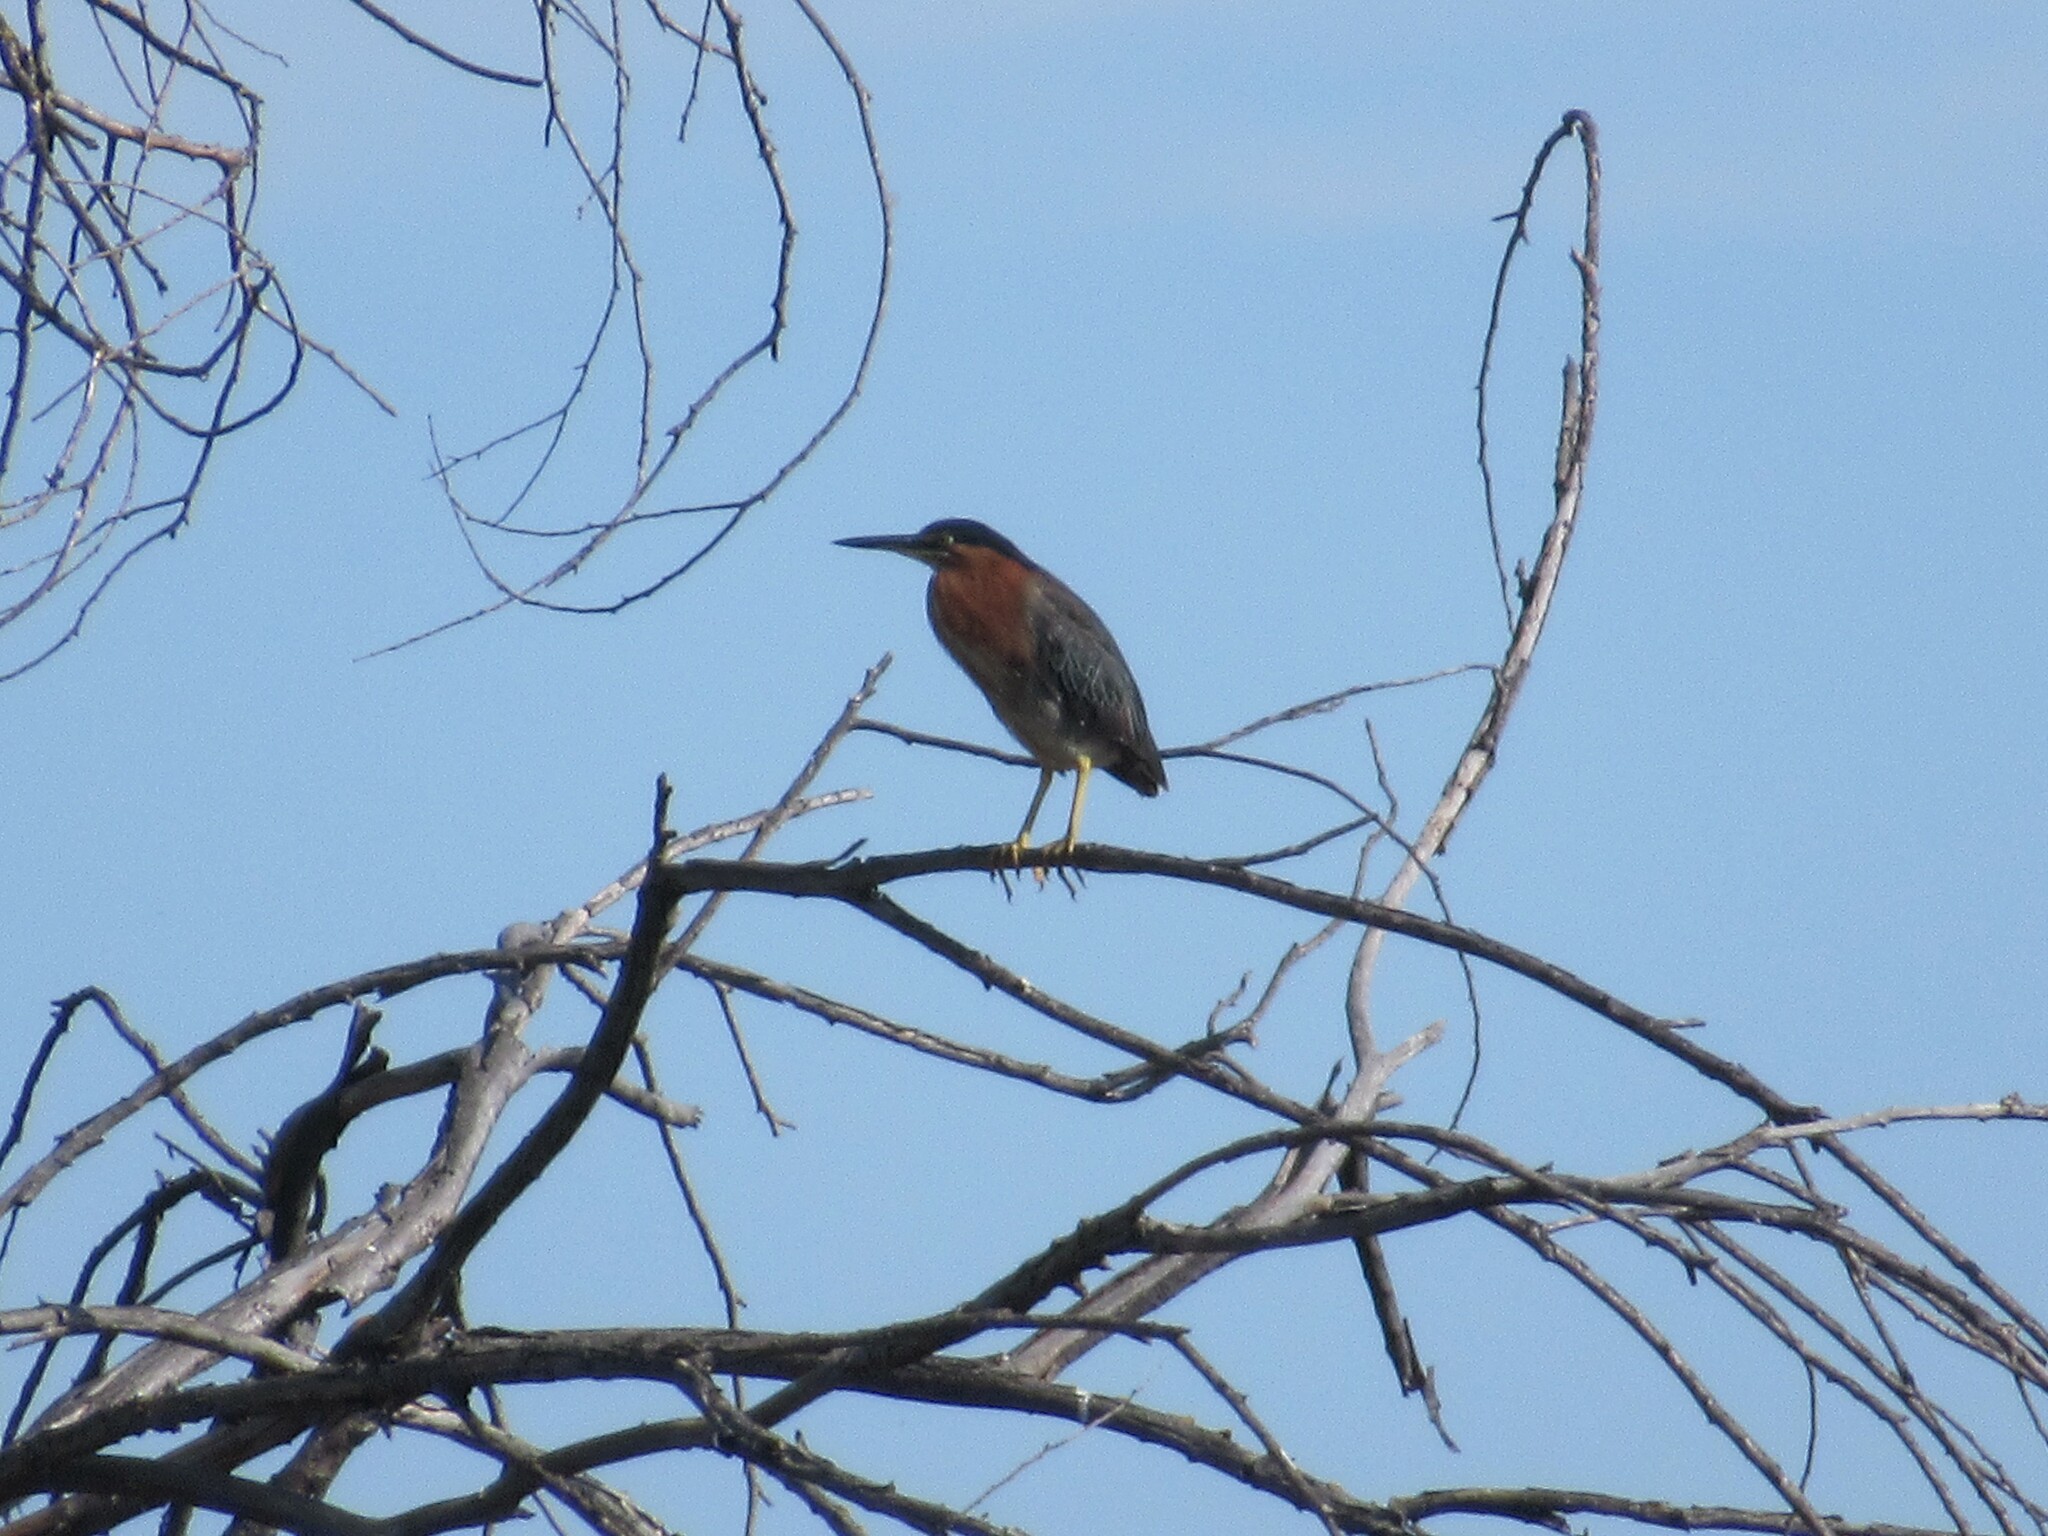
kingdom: Animalia
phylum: Chordata
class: Aves
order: Pelecaniformes
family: Ardeidae
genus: Butorides
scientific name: Butorides virescens
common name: Green heron
